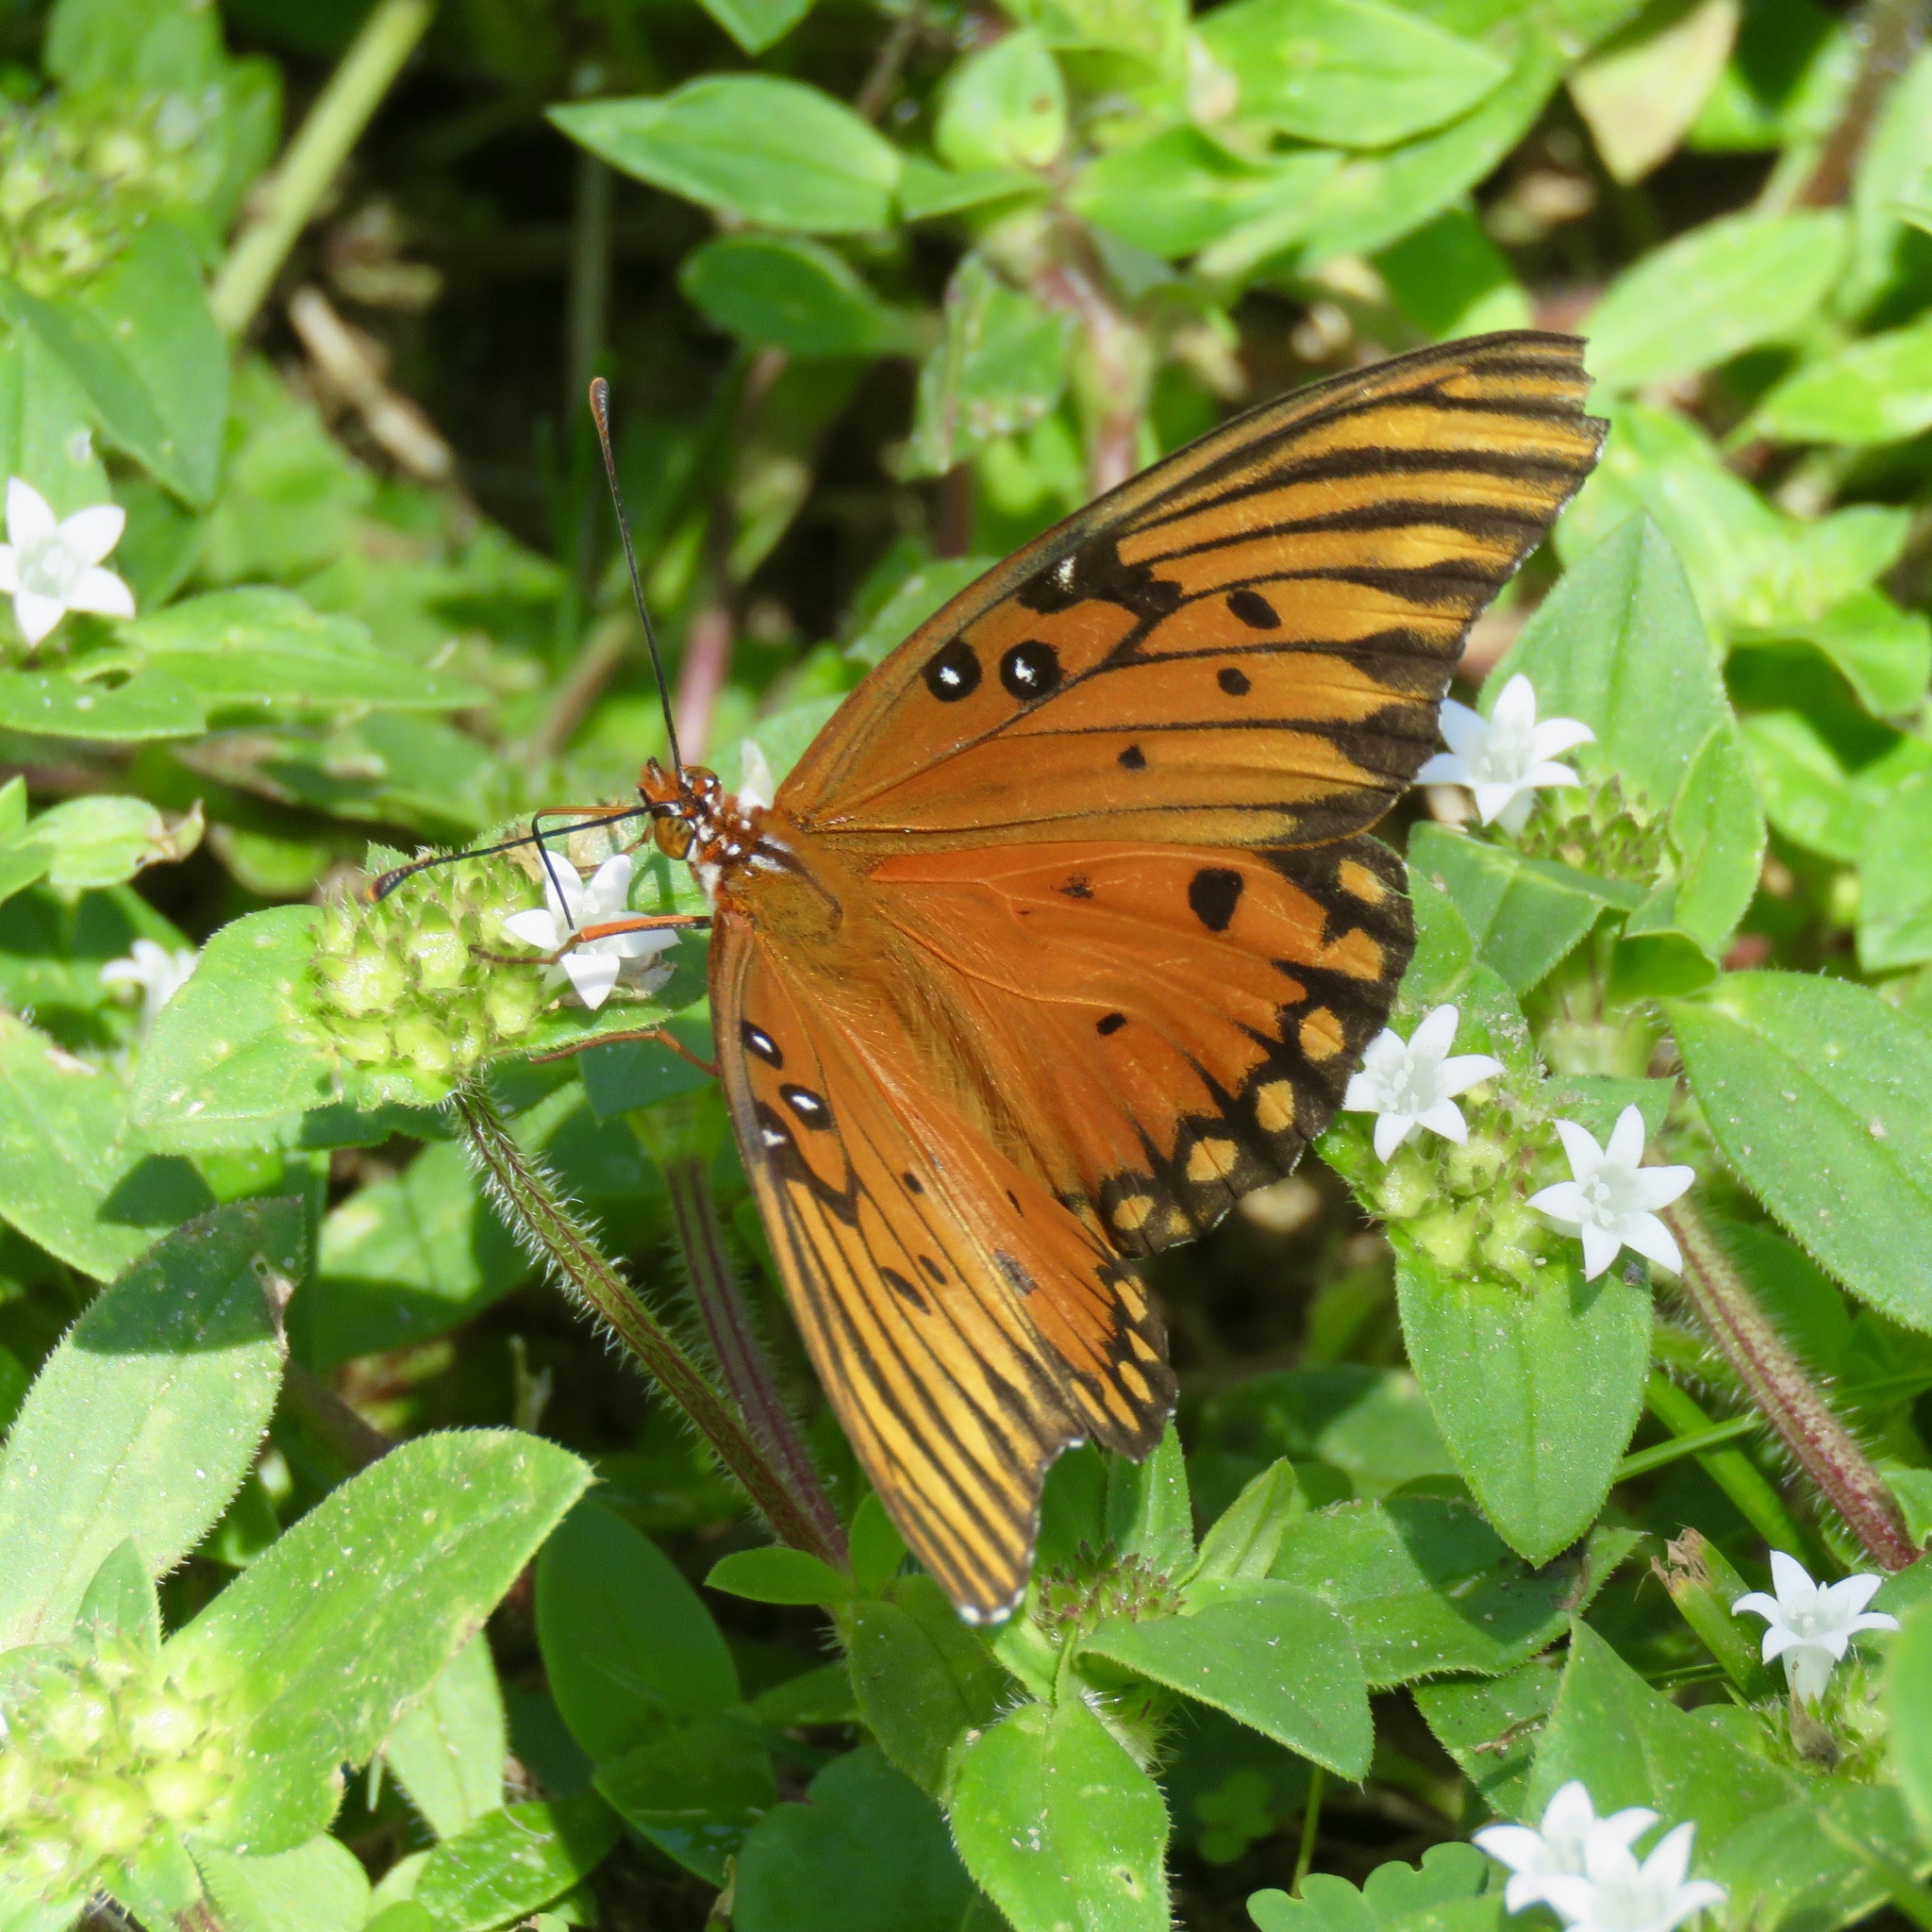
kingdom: Animalia
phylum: Arthropoda
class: Insecta
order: Lepidoptera
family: Nymphalidae
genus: Dione
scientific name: Dione vanillae
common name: Gulf fritillary
